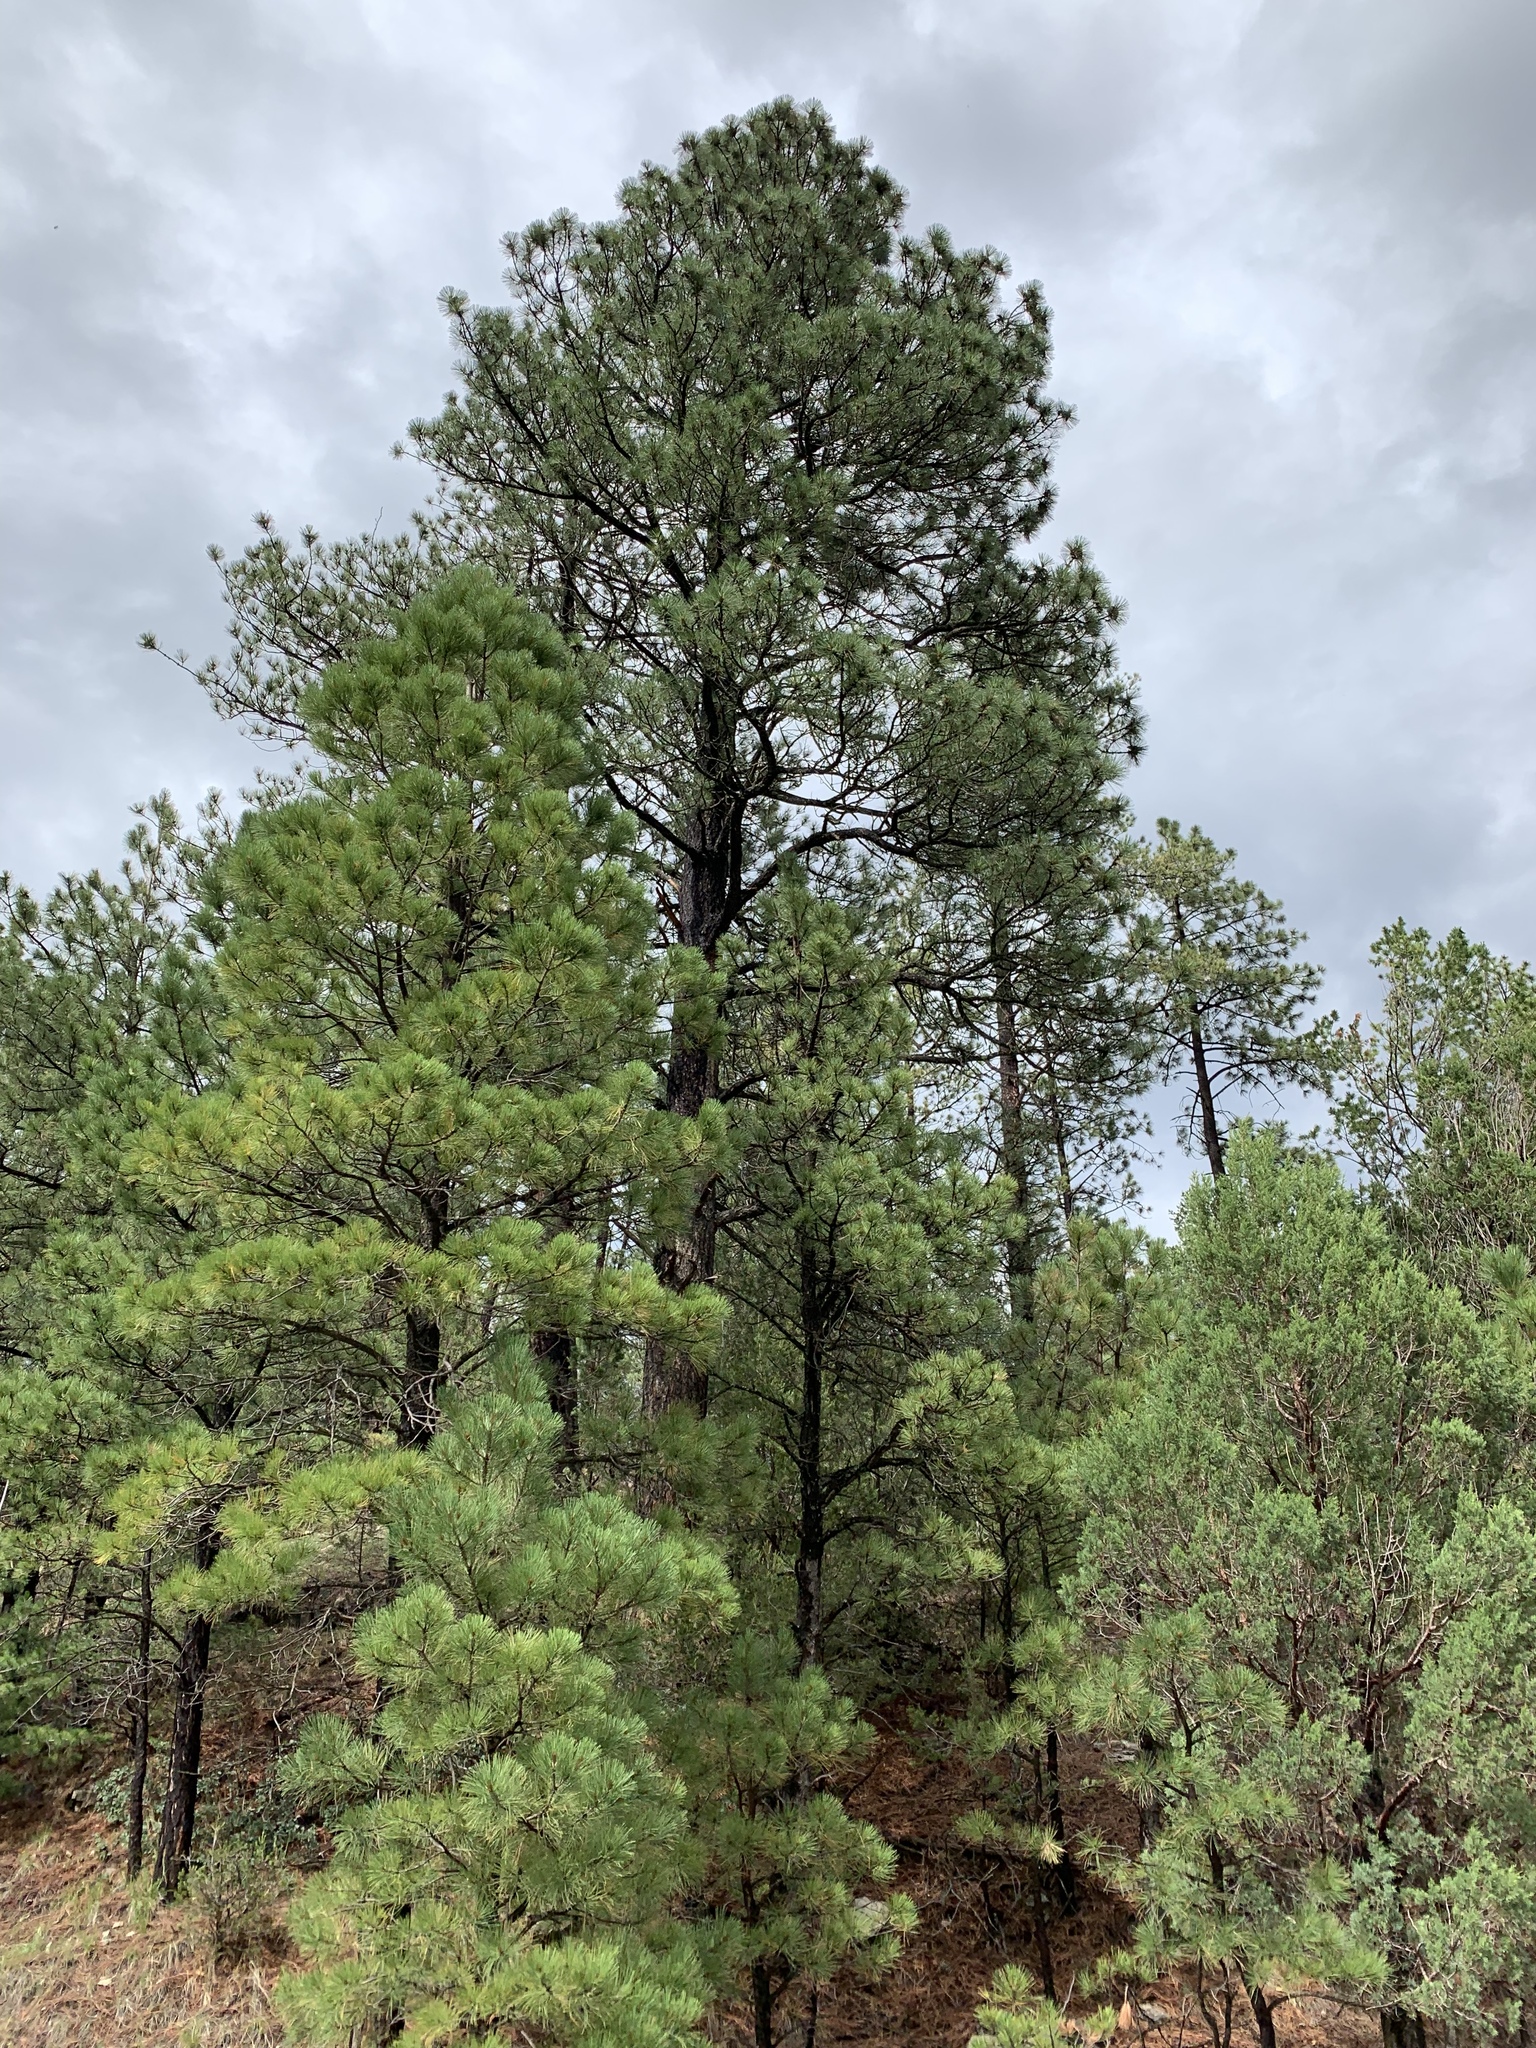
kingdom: Plantae
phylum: Tracheophyta
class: Pinopsida
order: Pinales
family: Pinaceae
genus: Pinus
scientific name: Pinus ponderosa
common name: Western yellow-pine
